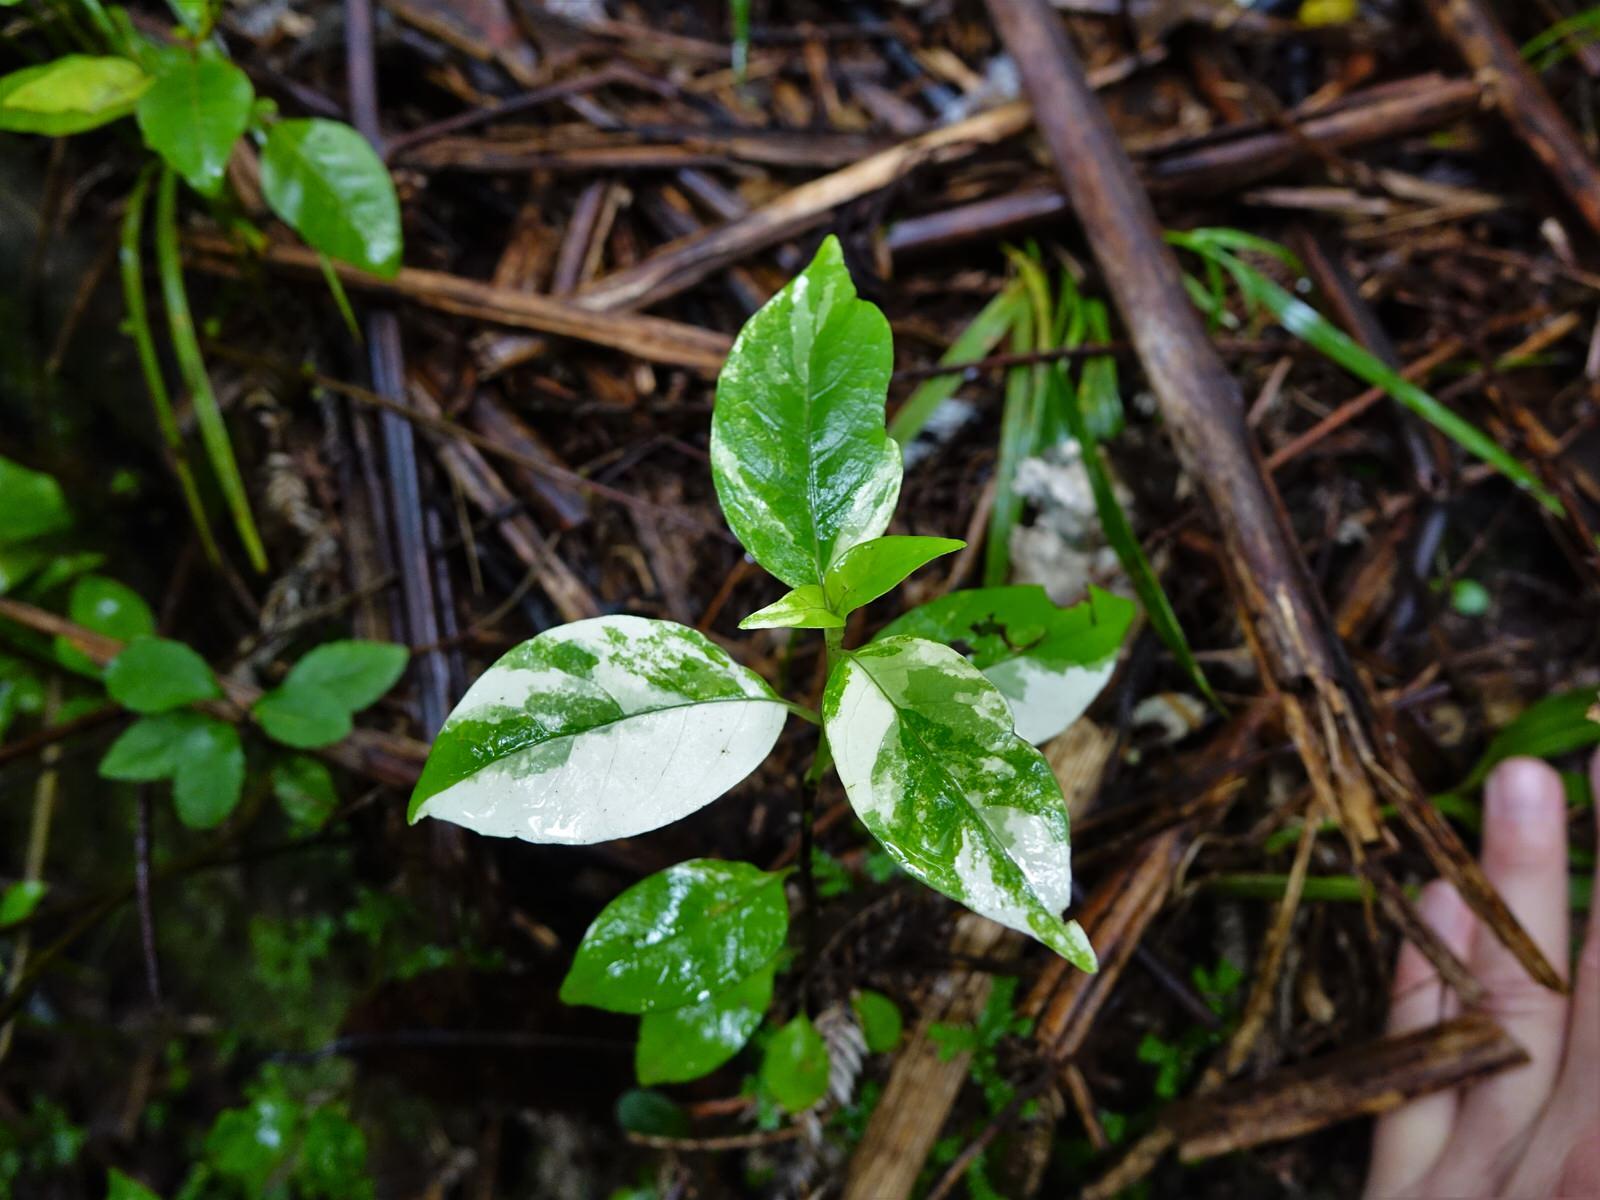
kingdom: Plantae
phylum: Tracheophyta
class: Magnoliopsida
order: Gentianales
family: Loganiaceae
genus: Geniostoma
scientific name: Geniostoma ligustrifolium
